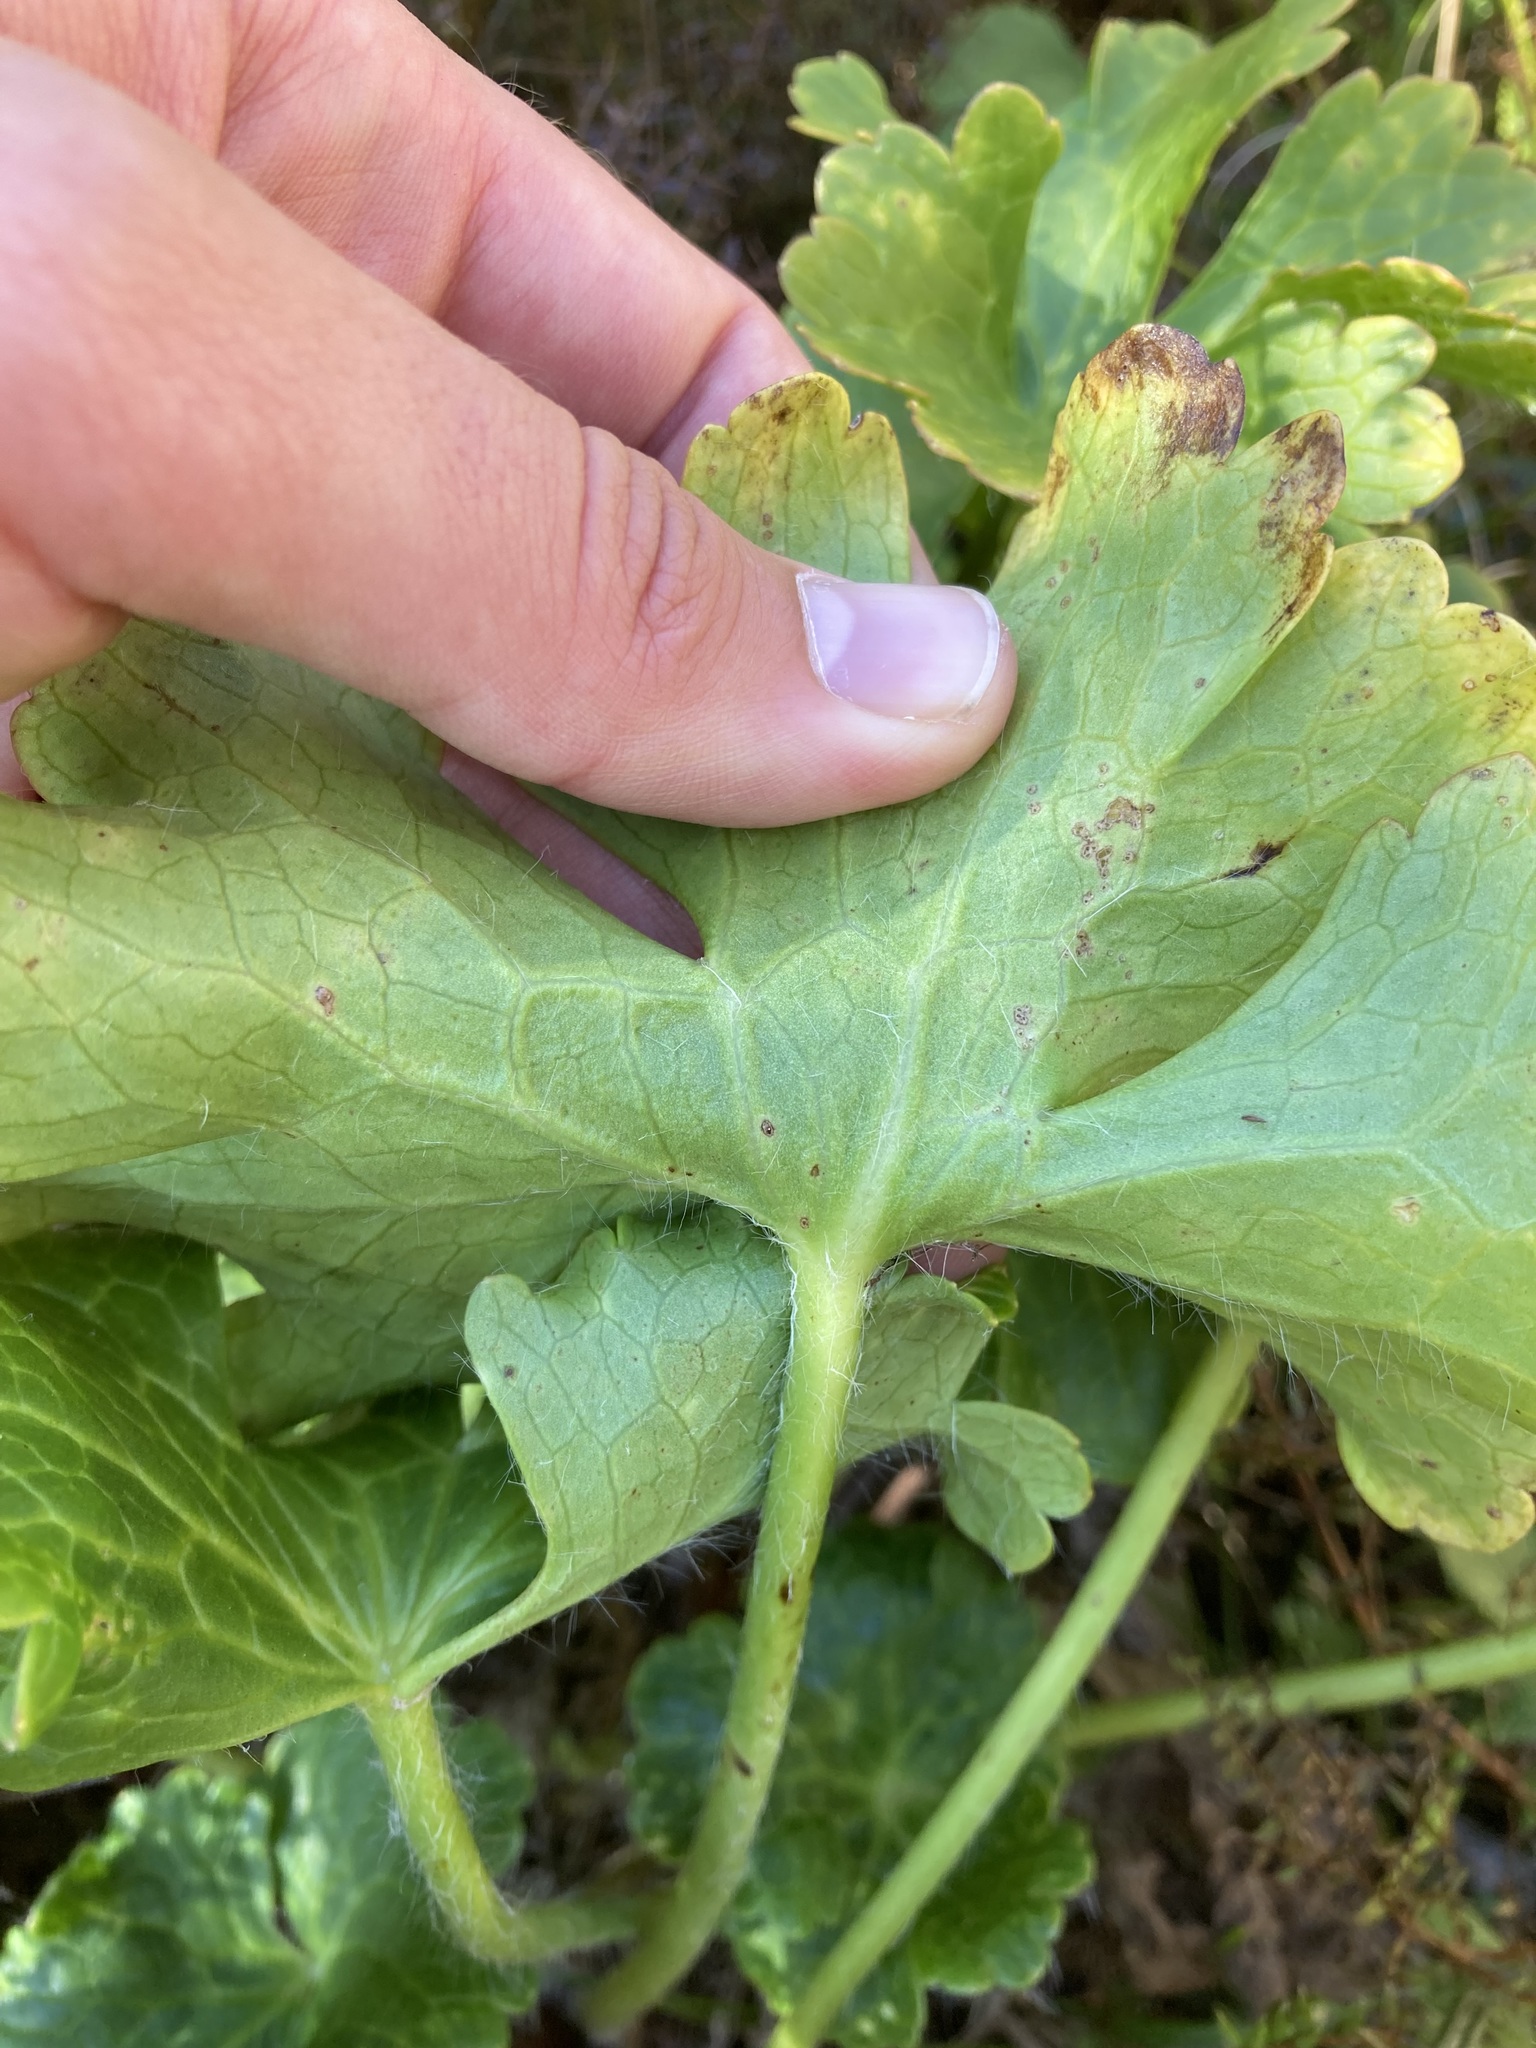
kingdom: Plantae
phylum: Tracheophyta
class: Magnoliopsida
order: Ranunculales
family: Ranunculaceae
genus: Ranunculus
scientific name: Ranunculus nivicola
